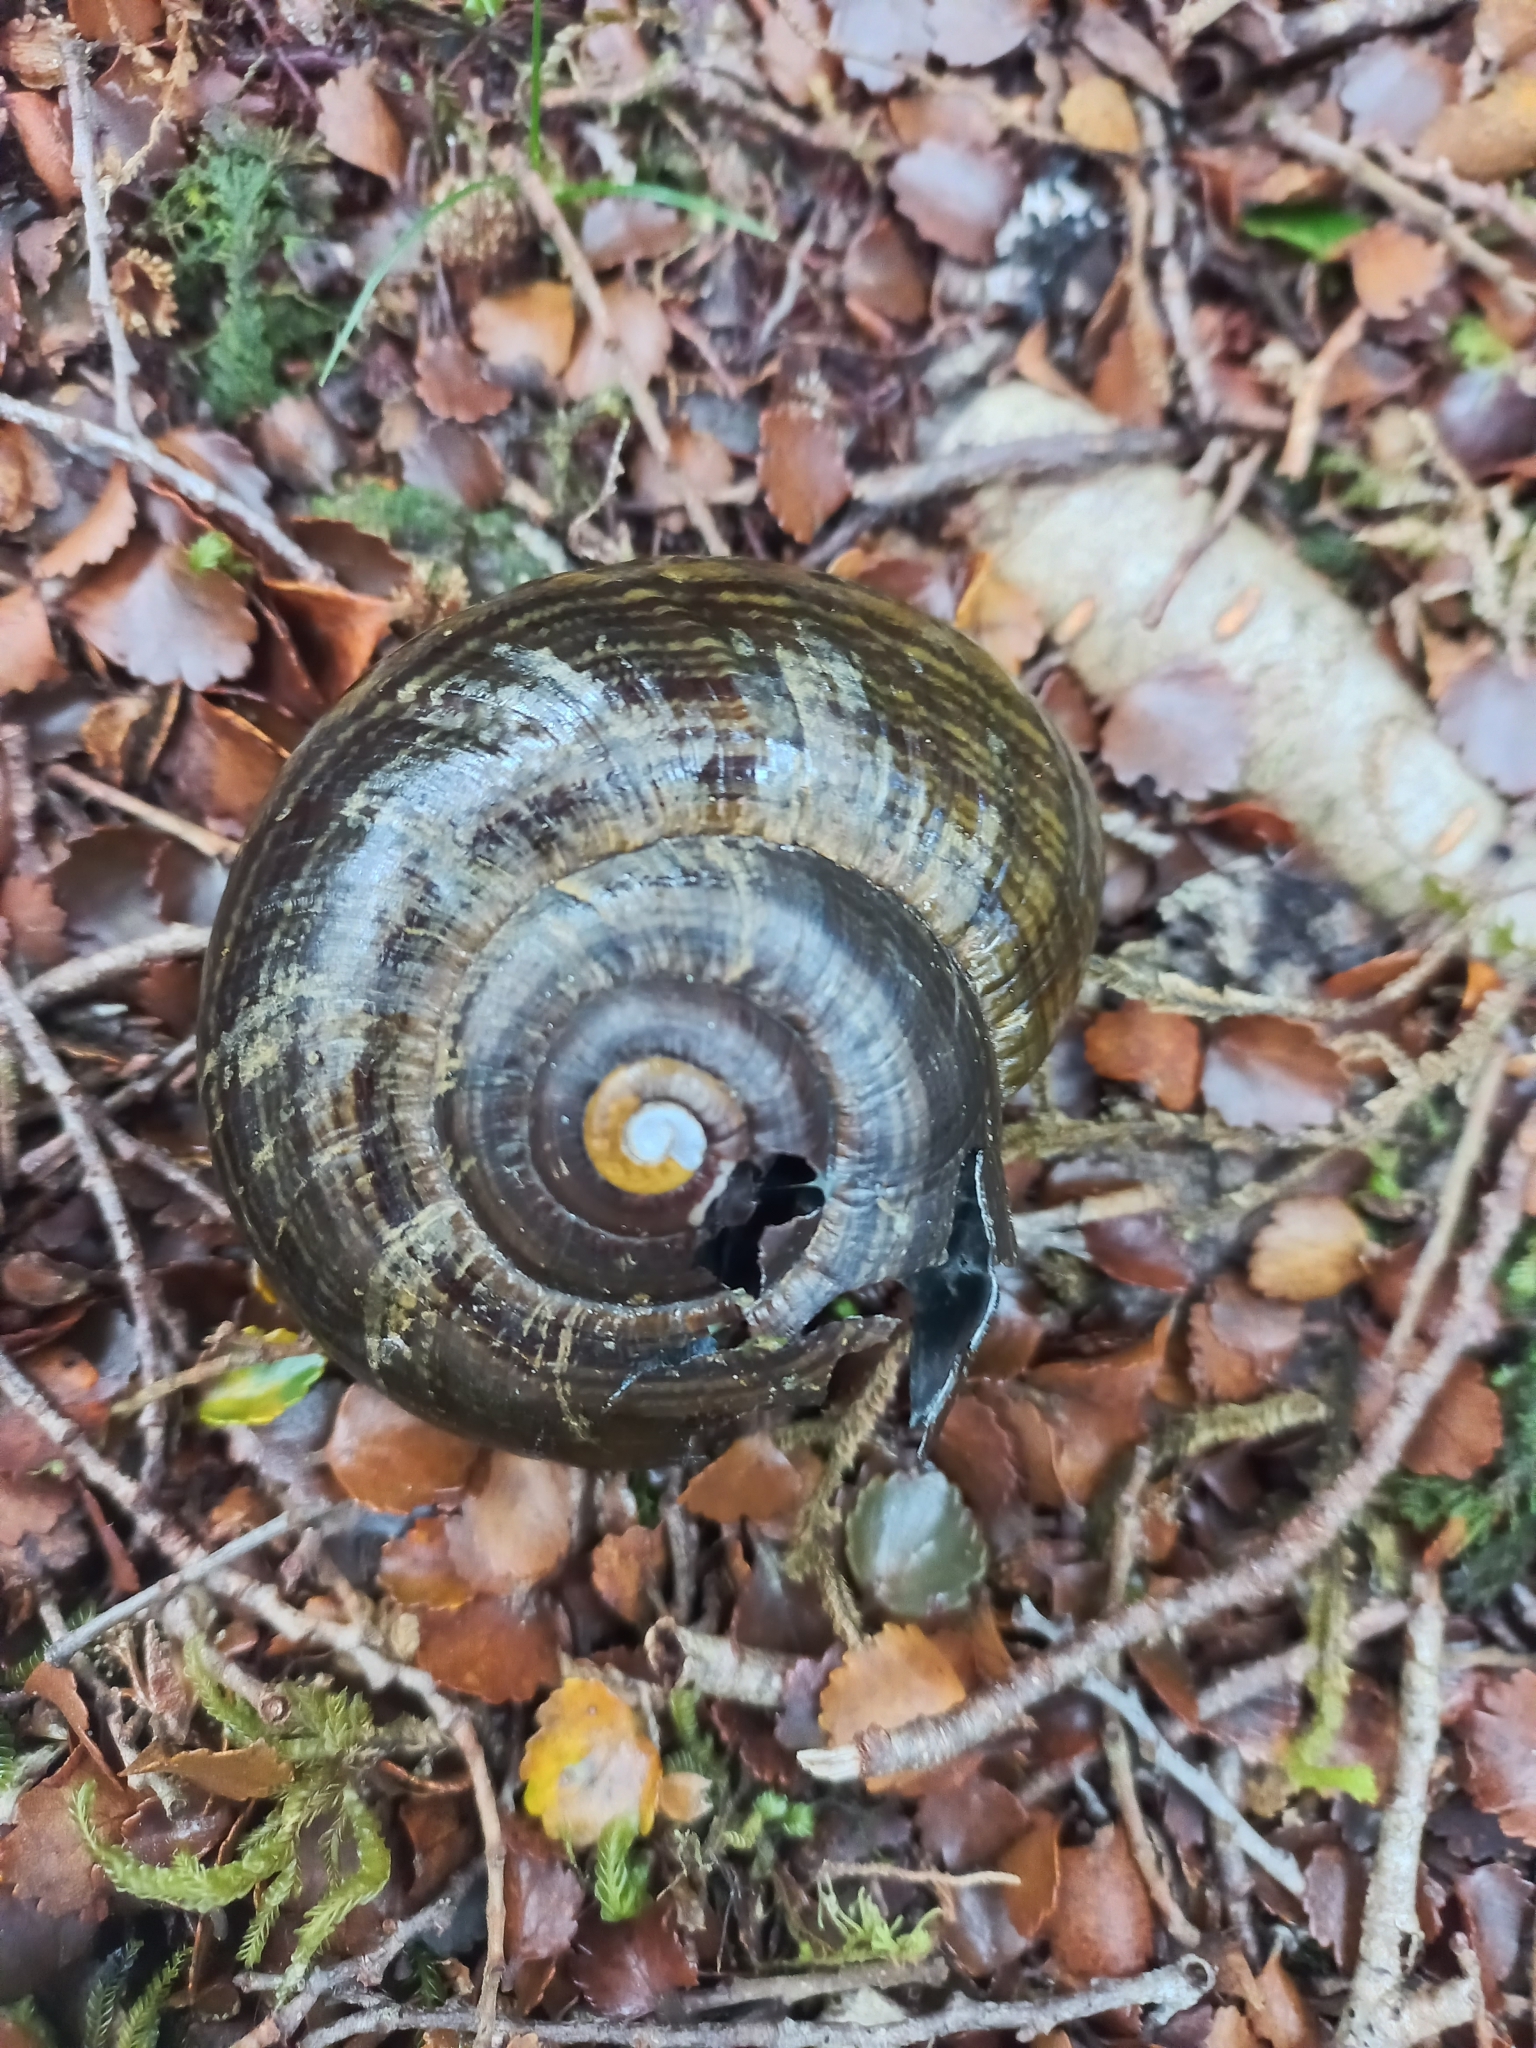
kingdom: Animalia
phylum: Mollusca
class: Gastropoda
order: Stylommatophora
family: Rhytididae
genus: Powelliphanta
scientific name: Powelliphanta hochstetteri
